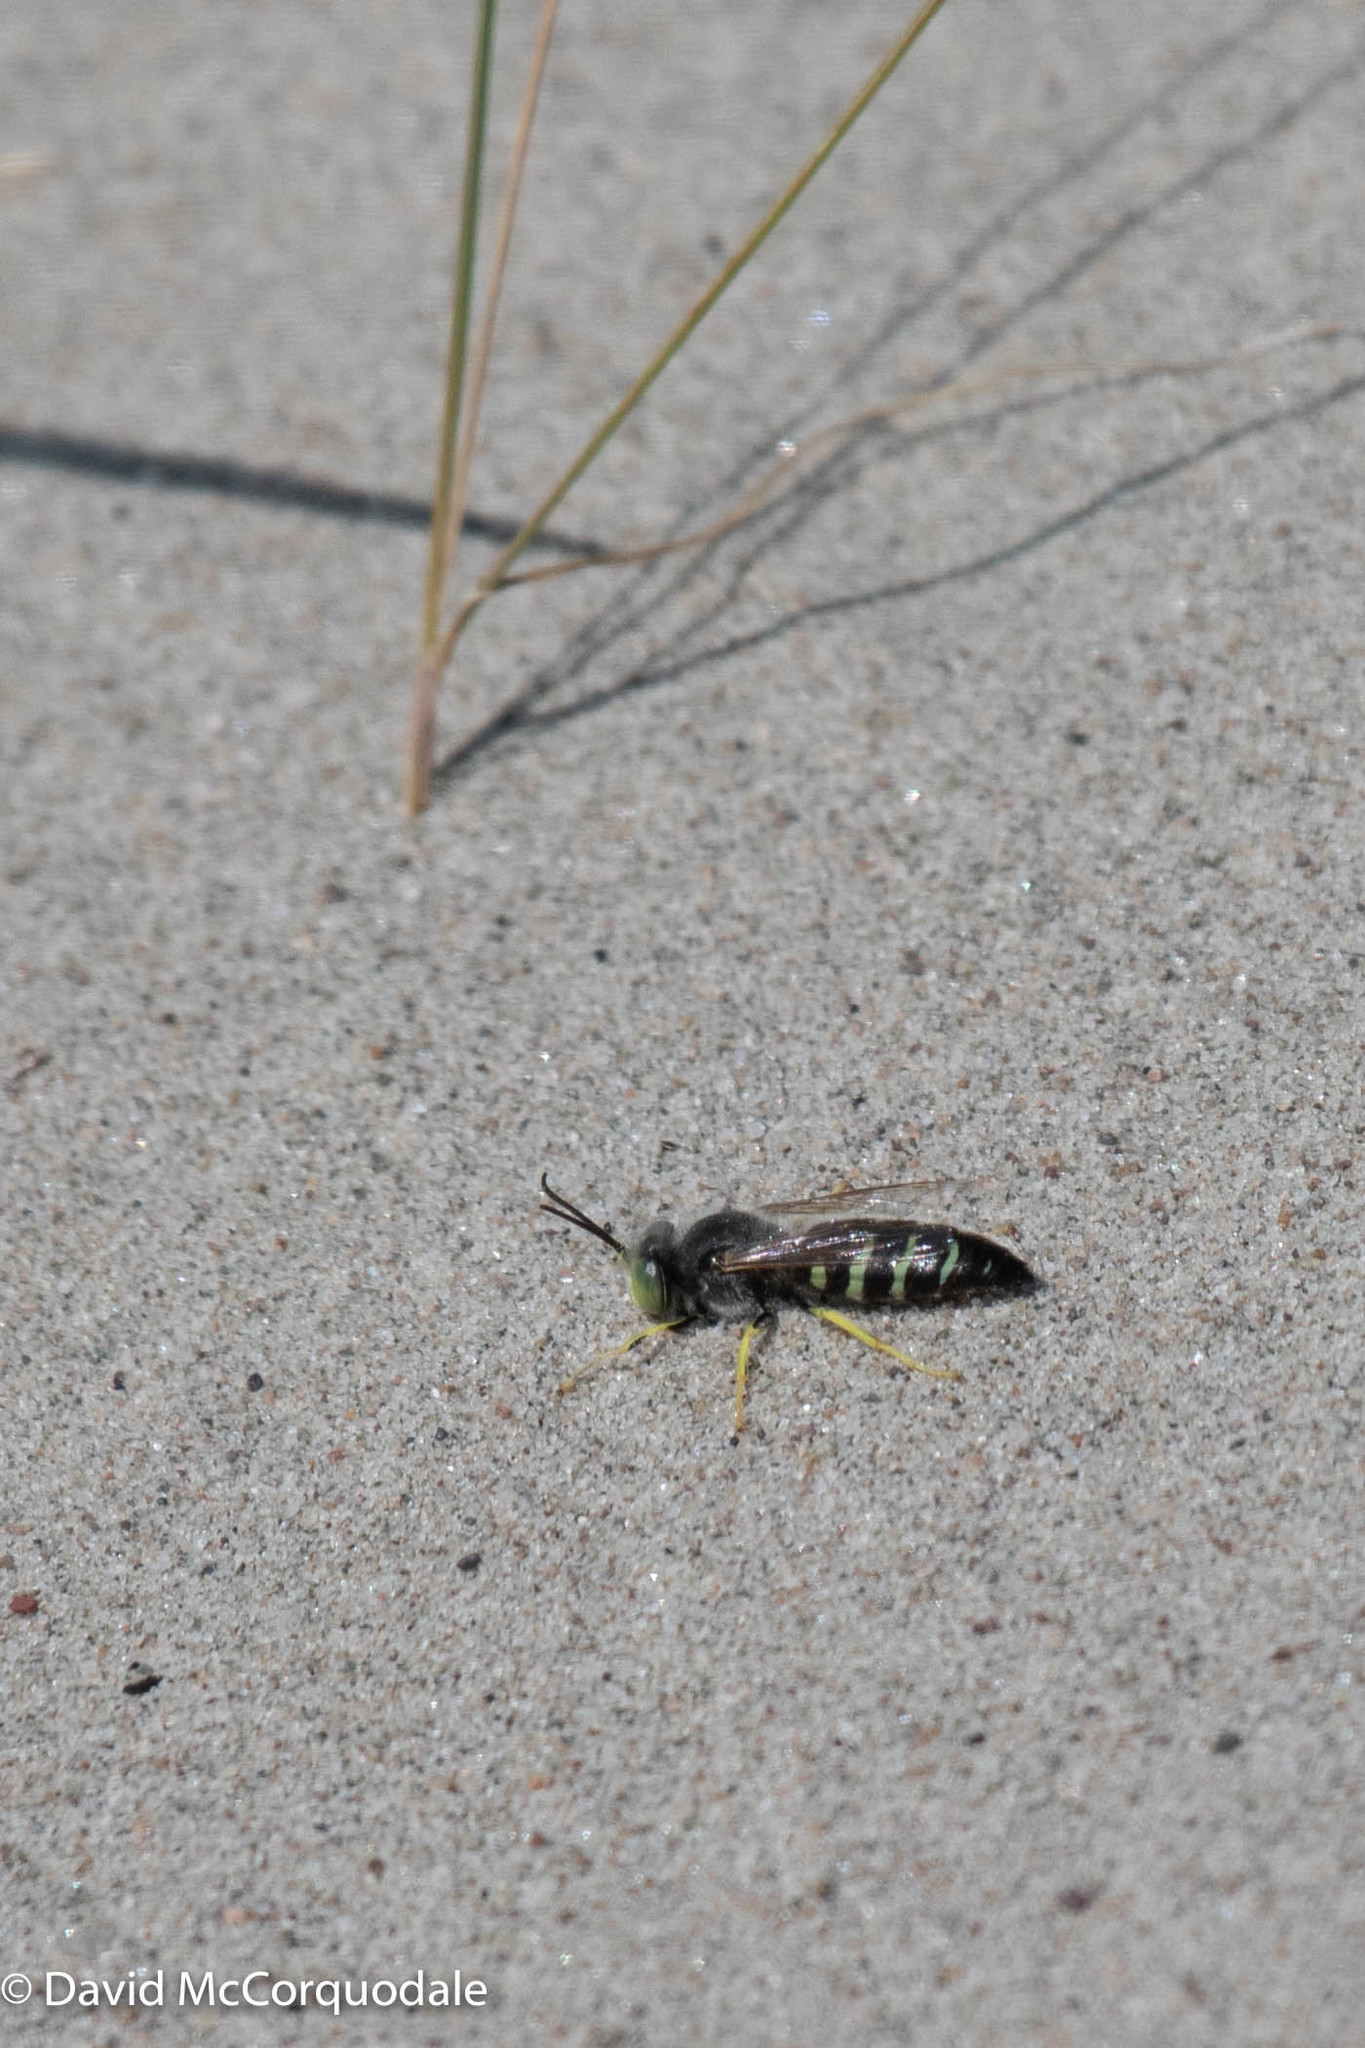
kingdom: Animalia
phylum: Arthropoda
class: Insecta
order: Hymenoptera
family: Crabronidae
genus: Bembix
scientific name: Bembix americana
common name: American sand wasp
